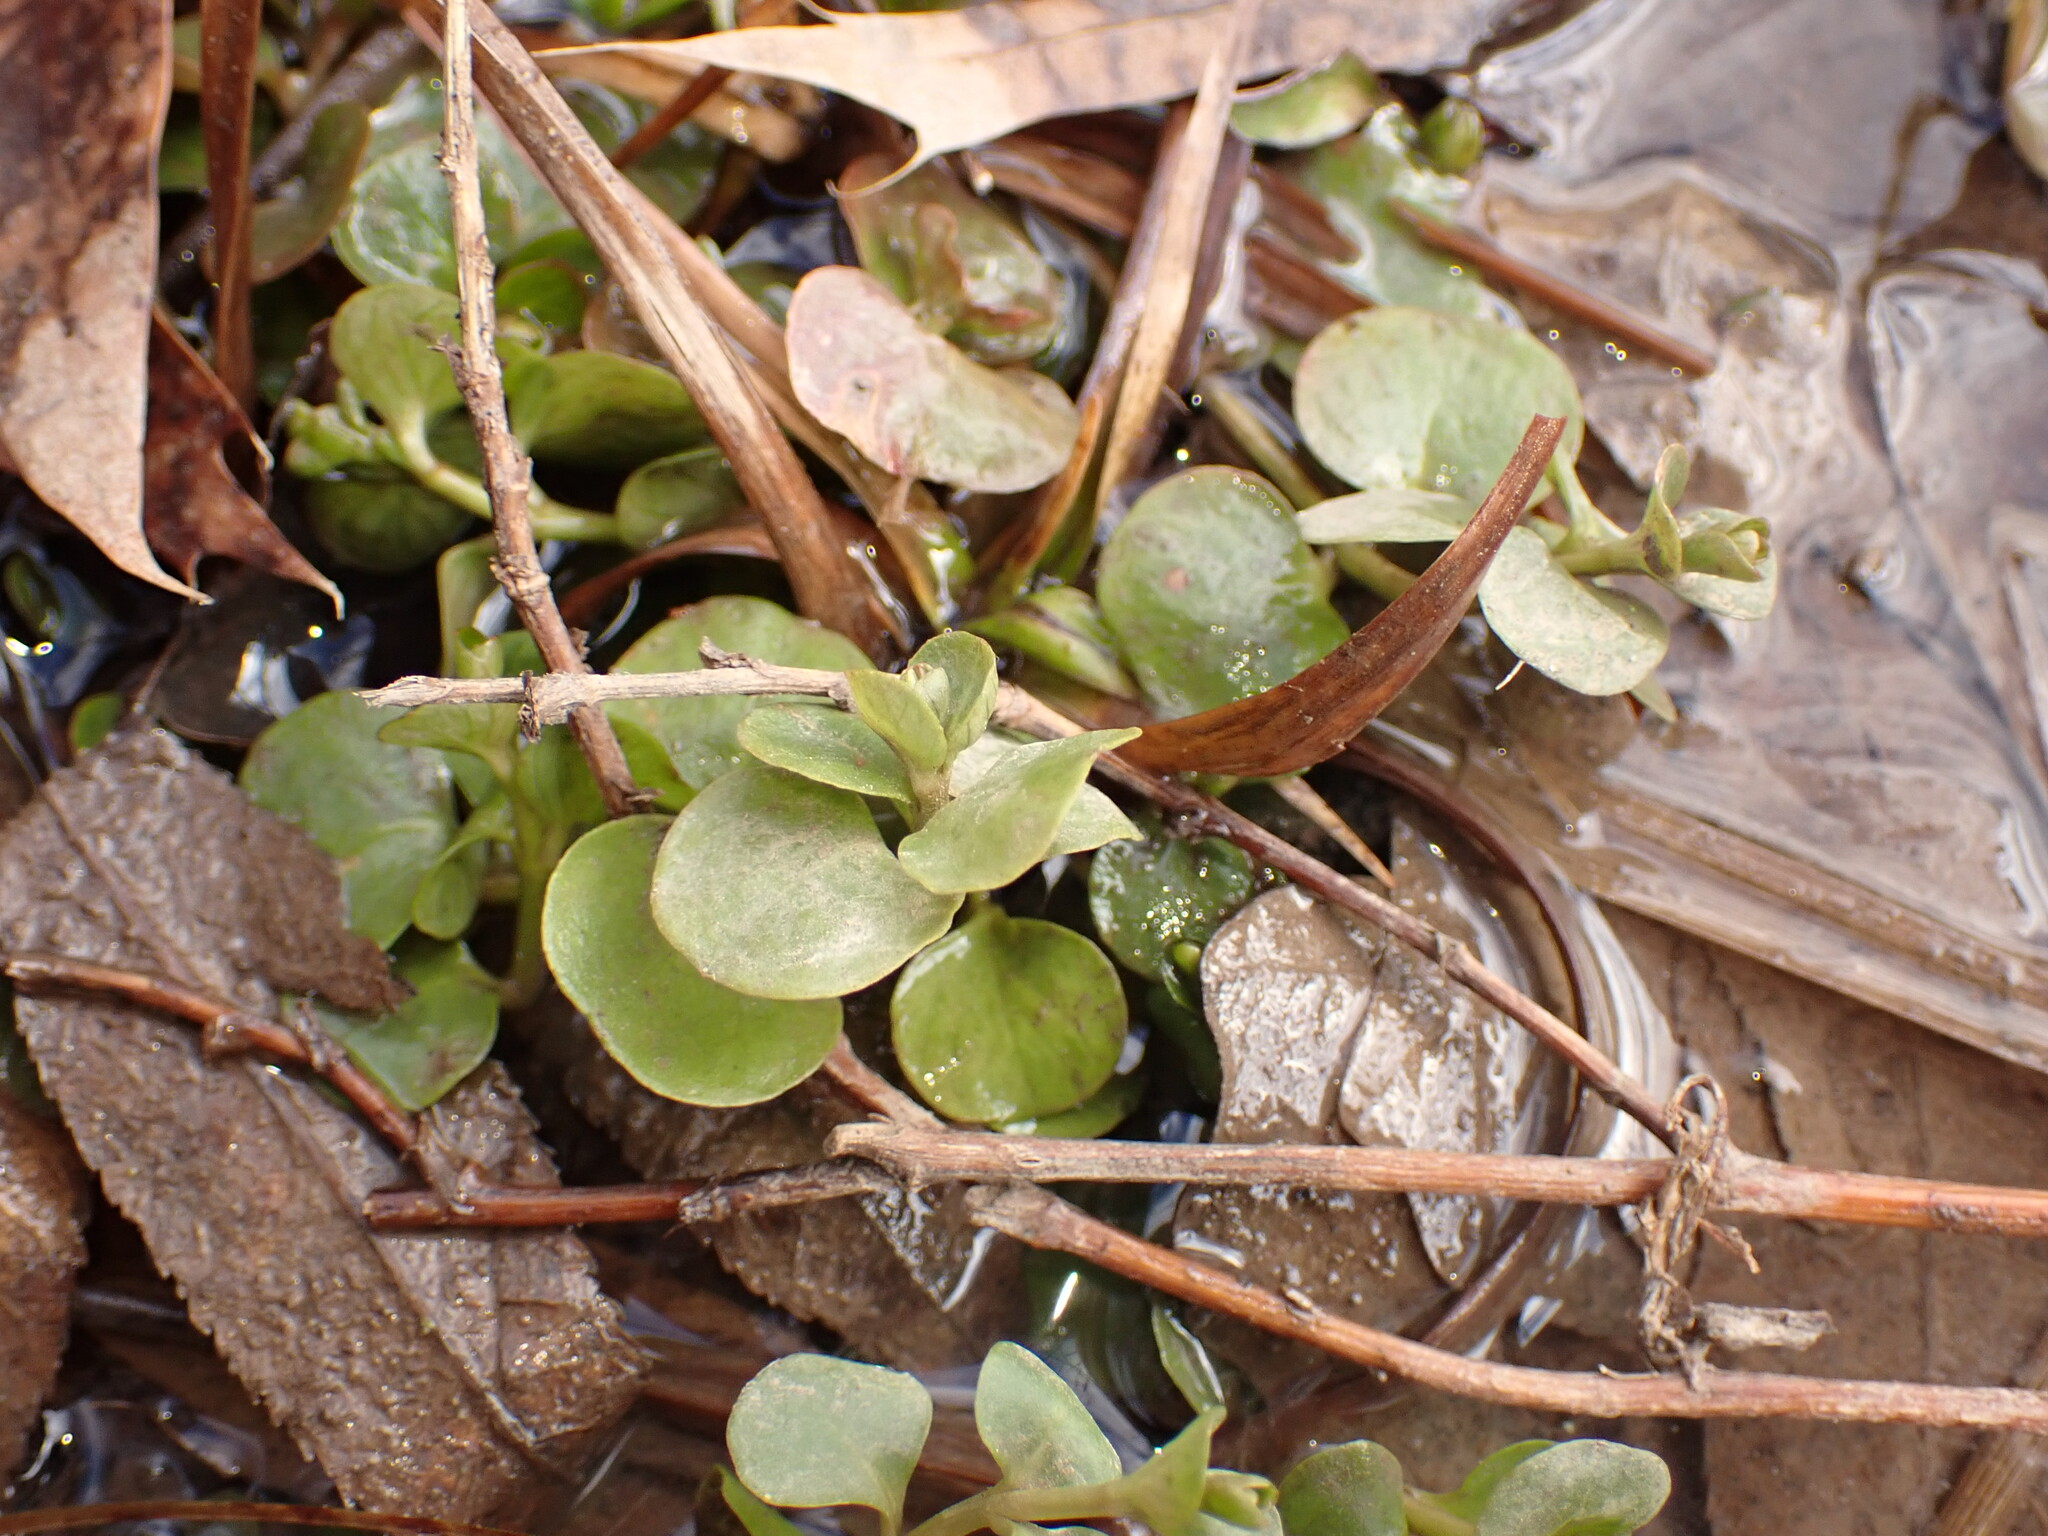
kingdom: Plantae
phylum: Tracheophyta
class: Magnoliopsida
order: Ericales
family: Primulaceae
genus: Lysimachia
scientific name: Lysimachia nummularia
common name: Moneywort
